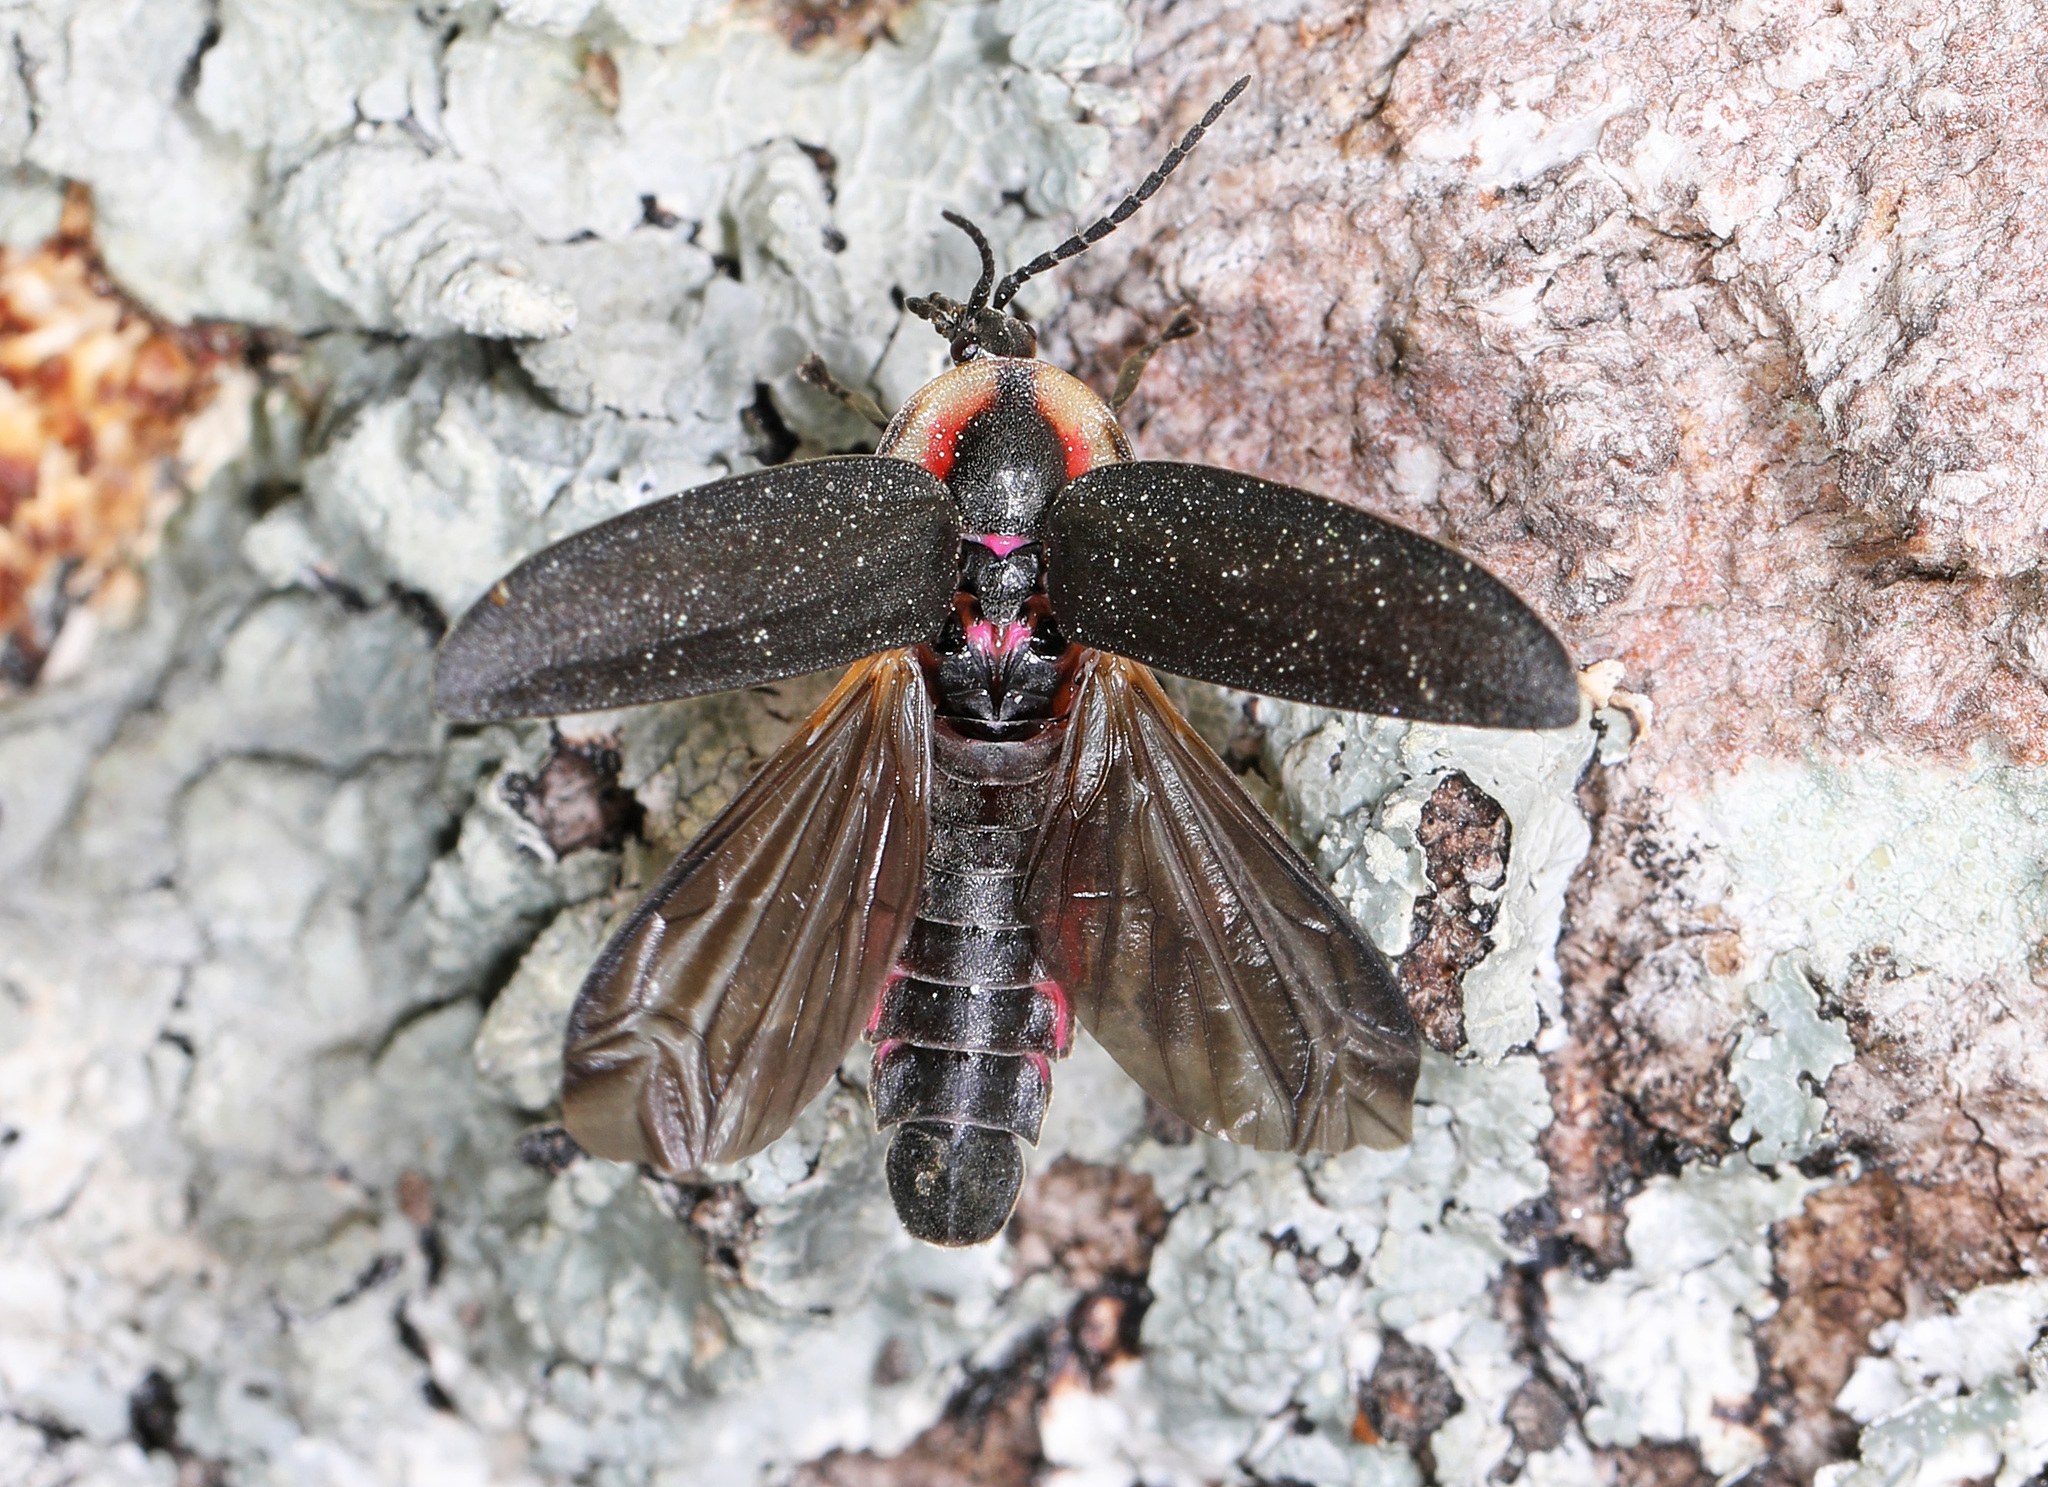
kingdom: Animalia
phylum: Arthropoda
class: Insecta
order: Coleoptera
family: Lampyridae
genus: Photinus
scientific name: Photinus corrusca
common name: Winter firefly
